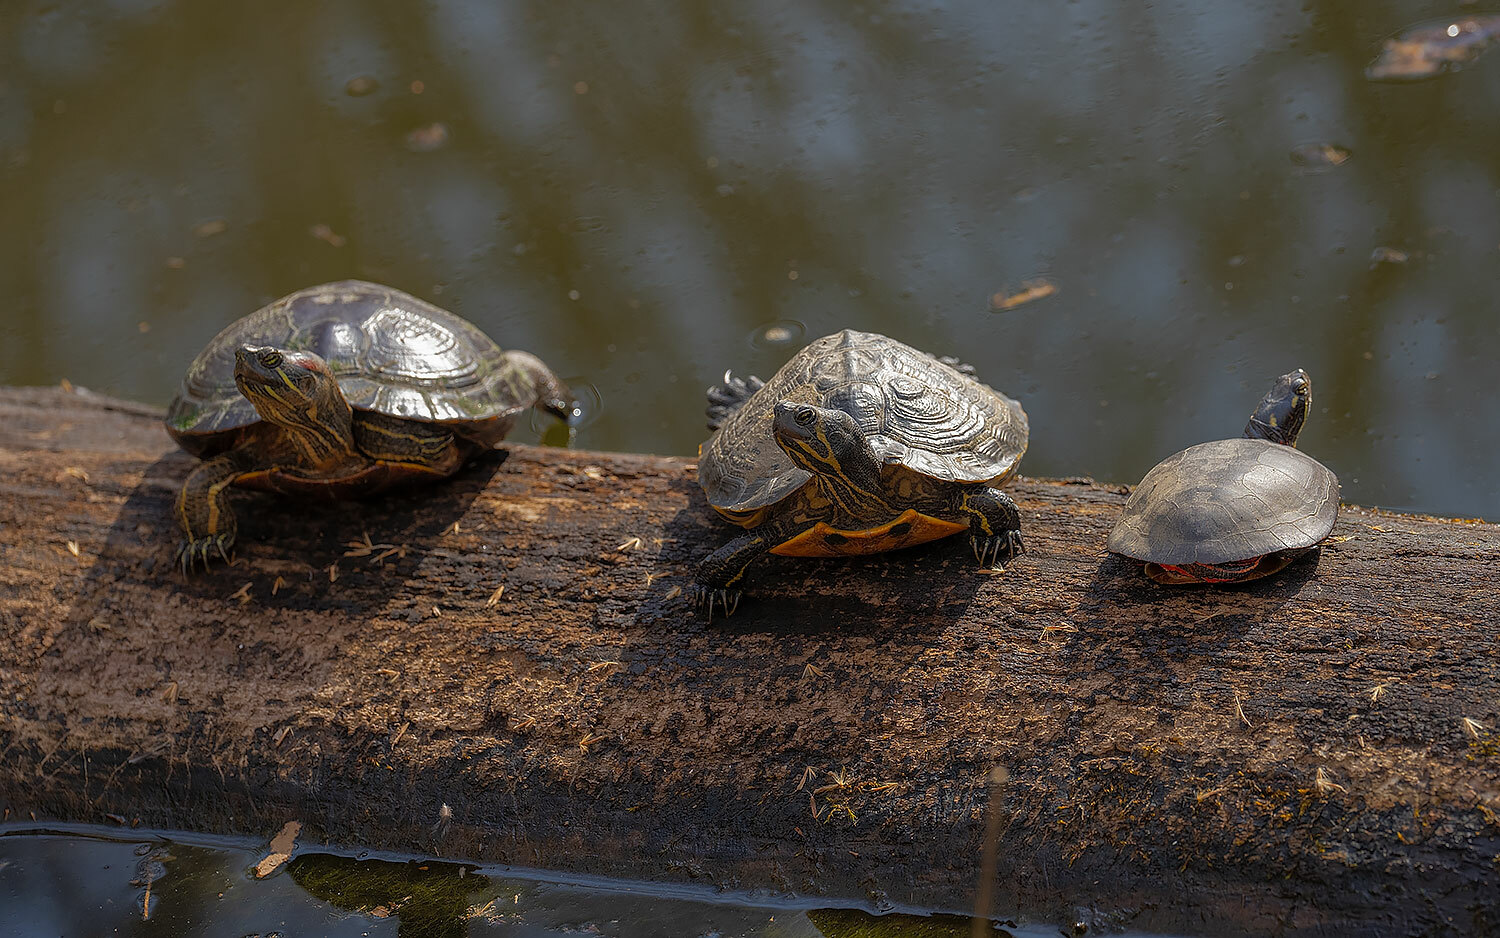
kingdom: Animalia
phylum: Chordata
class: Testudines
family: Emydidae
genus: Trachemys
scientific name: Trachemys scripta
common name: Slider
